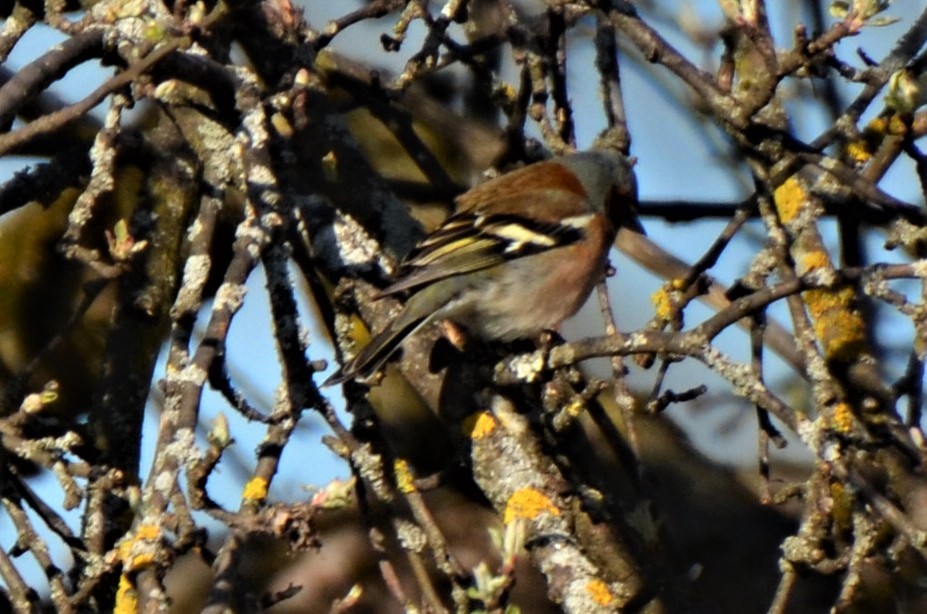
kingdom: Animalia
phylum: Chordata
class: Aves
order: Passeriformes
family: Fringillidae
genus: Fringilla
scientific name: Fringilla coelebs
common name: Common chaffinch
